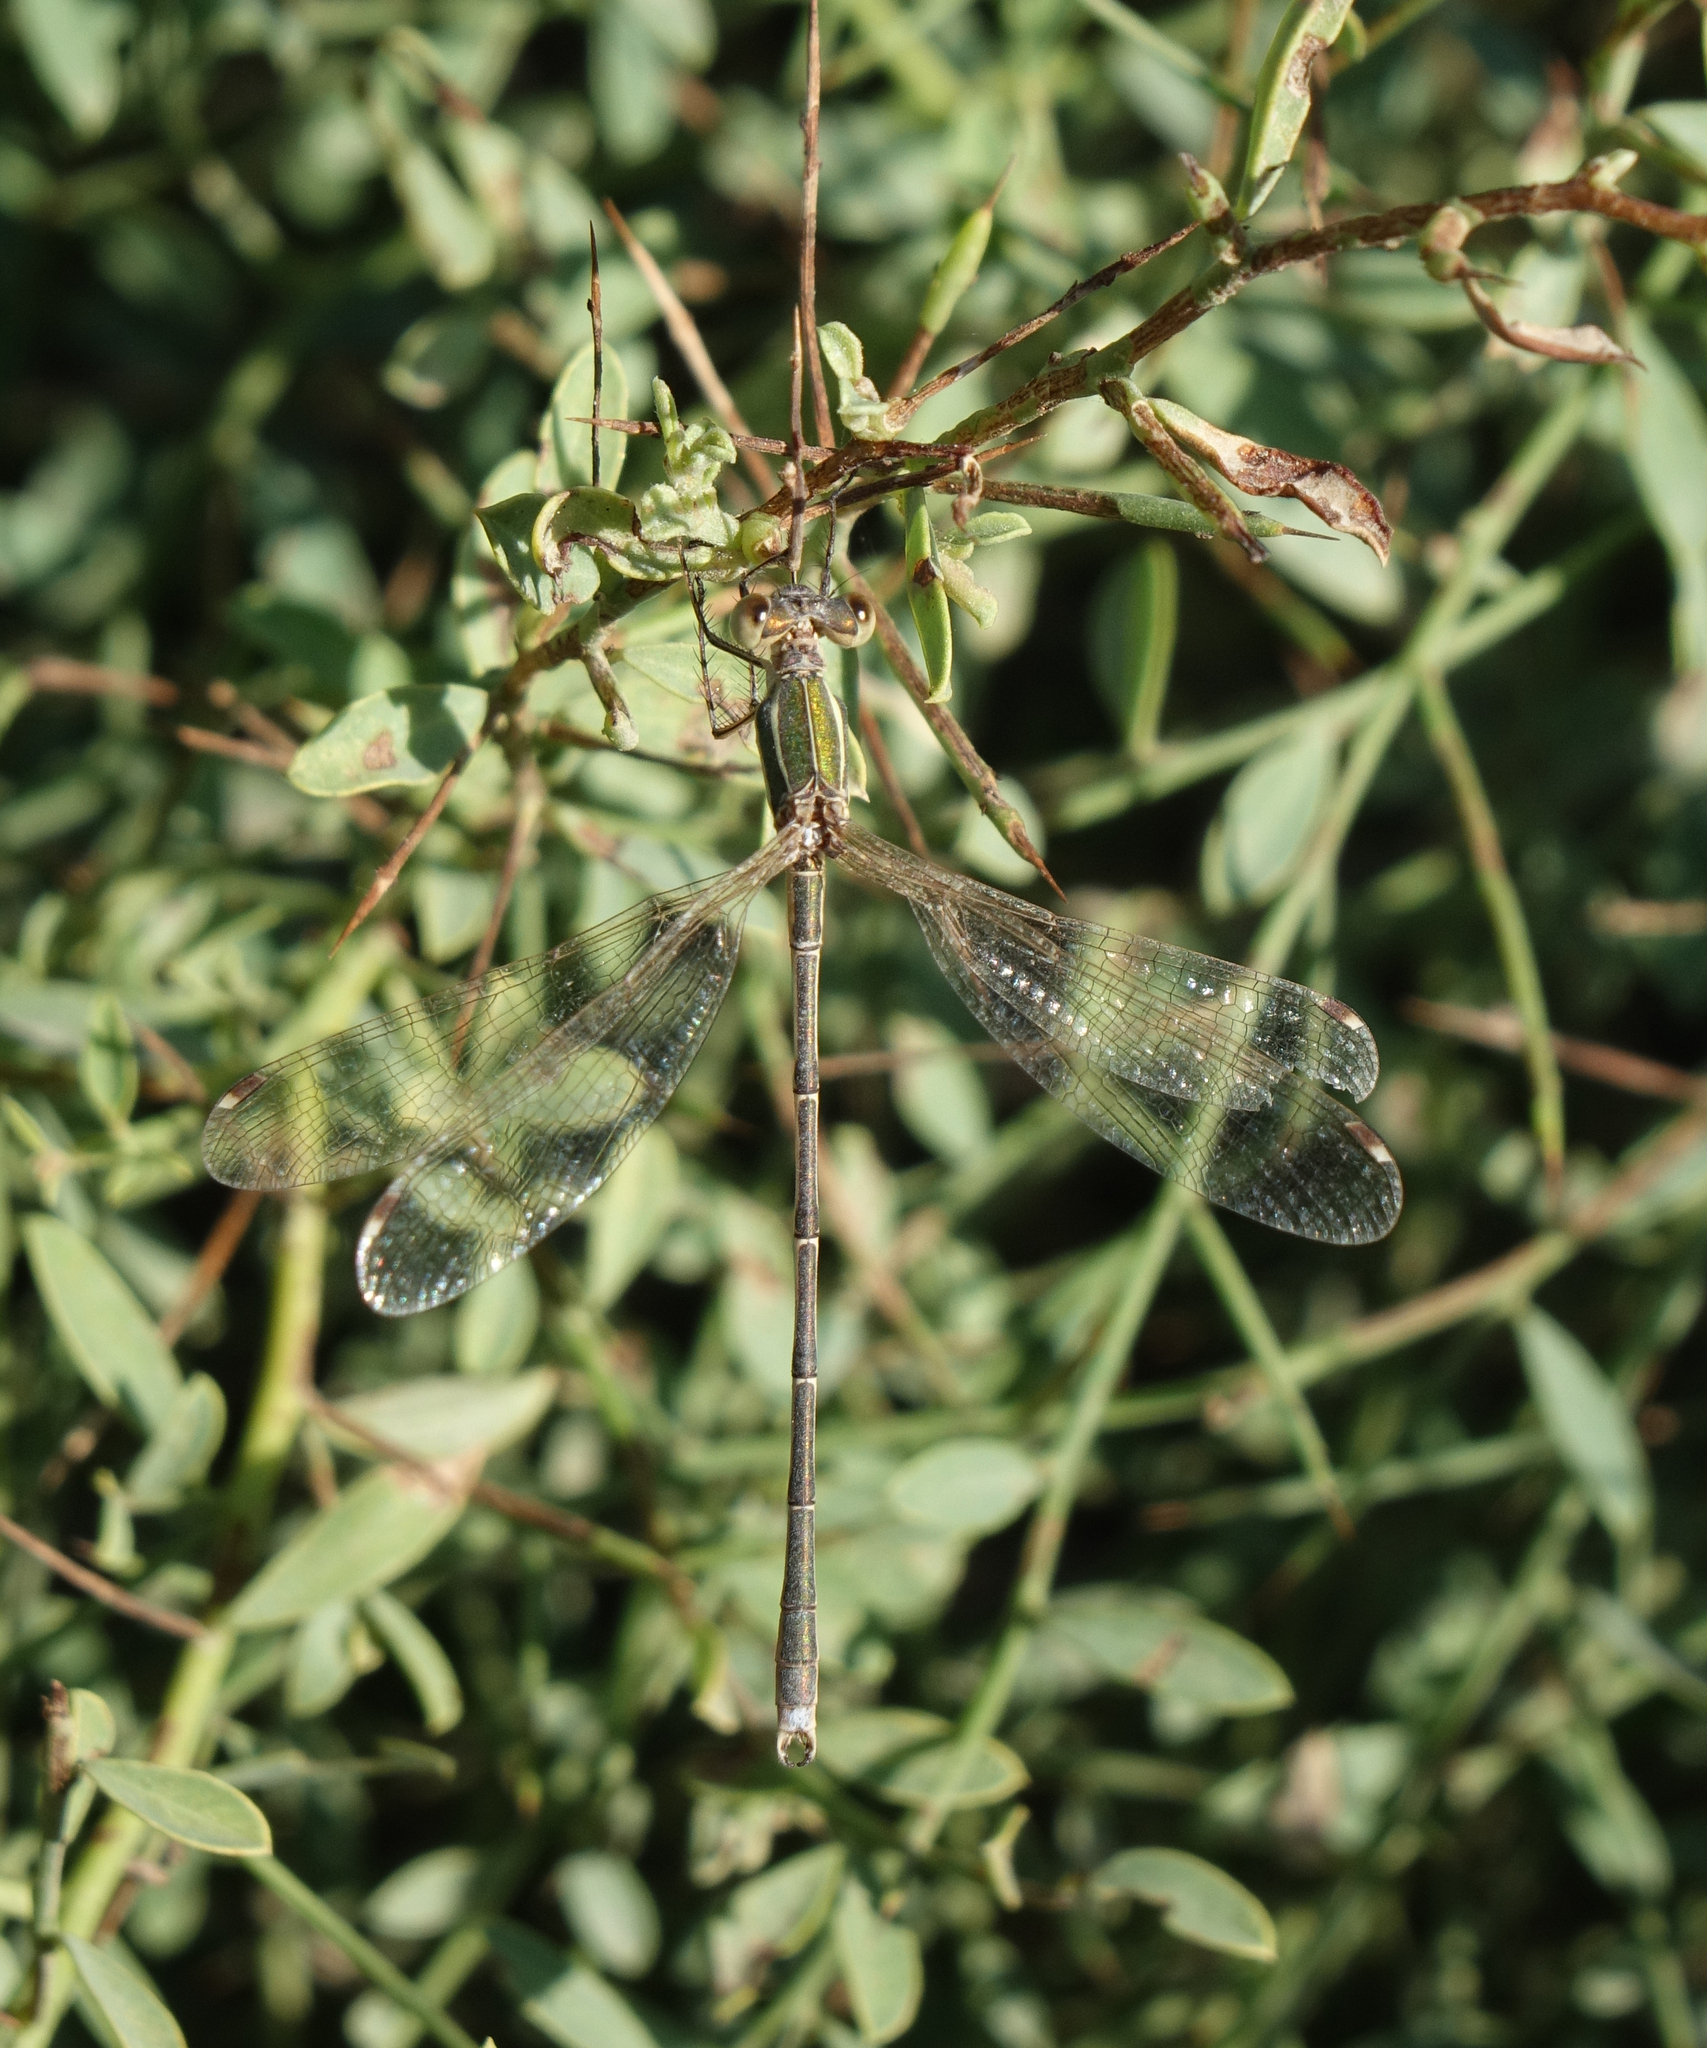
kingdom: Animalia
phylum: Arthropoda
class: Insecta
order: Odonata
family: Lestidae
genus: Lestes
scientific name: Lestes barbarus
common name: Migrant spreadwing
